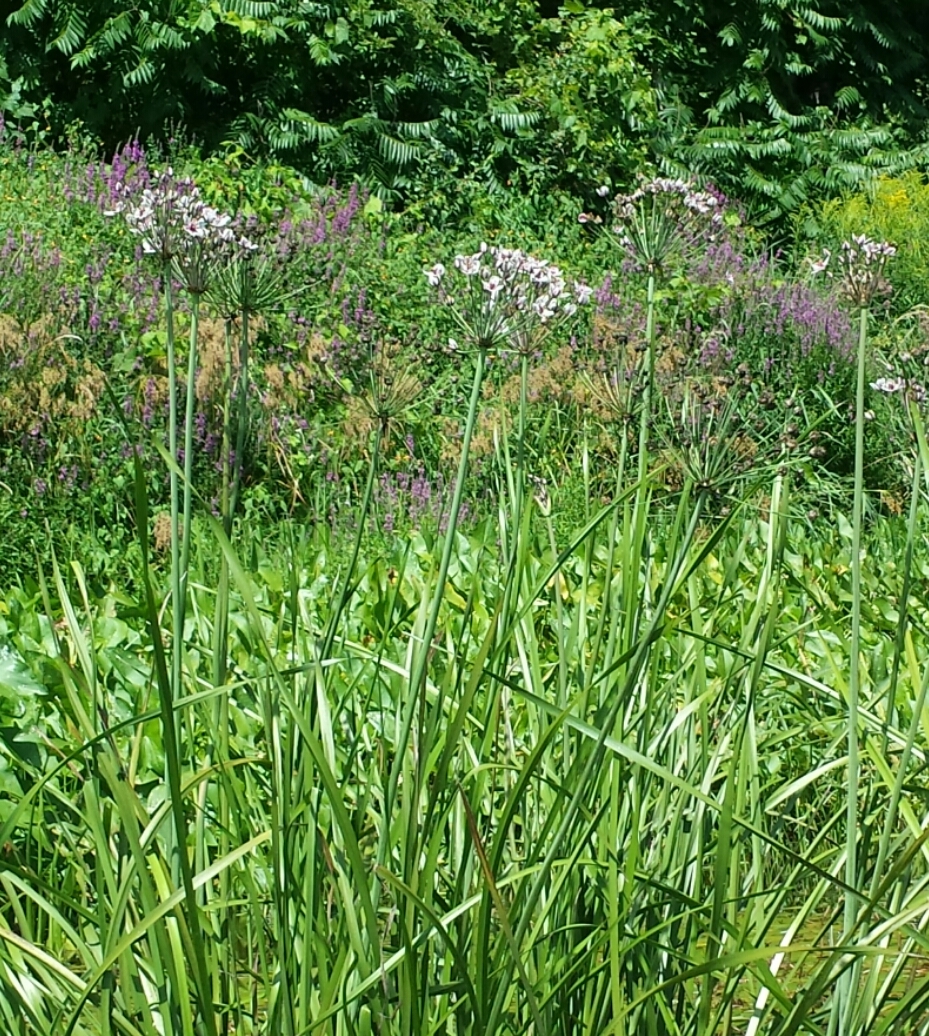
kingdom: Plantae
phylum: Tracheophyta
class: Liliopsida
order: Alismatales
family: Butomaceae
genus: Butomus
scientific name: Butomus umbellatus
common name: Flowering-rush
